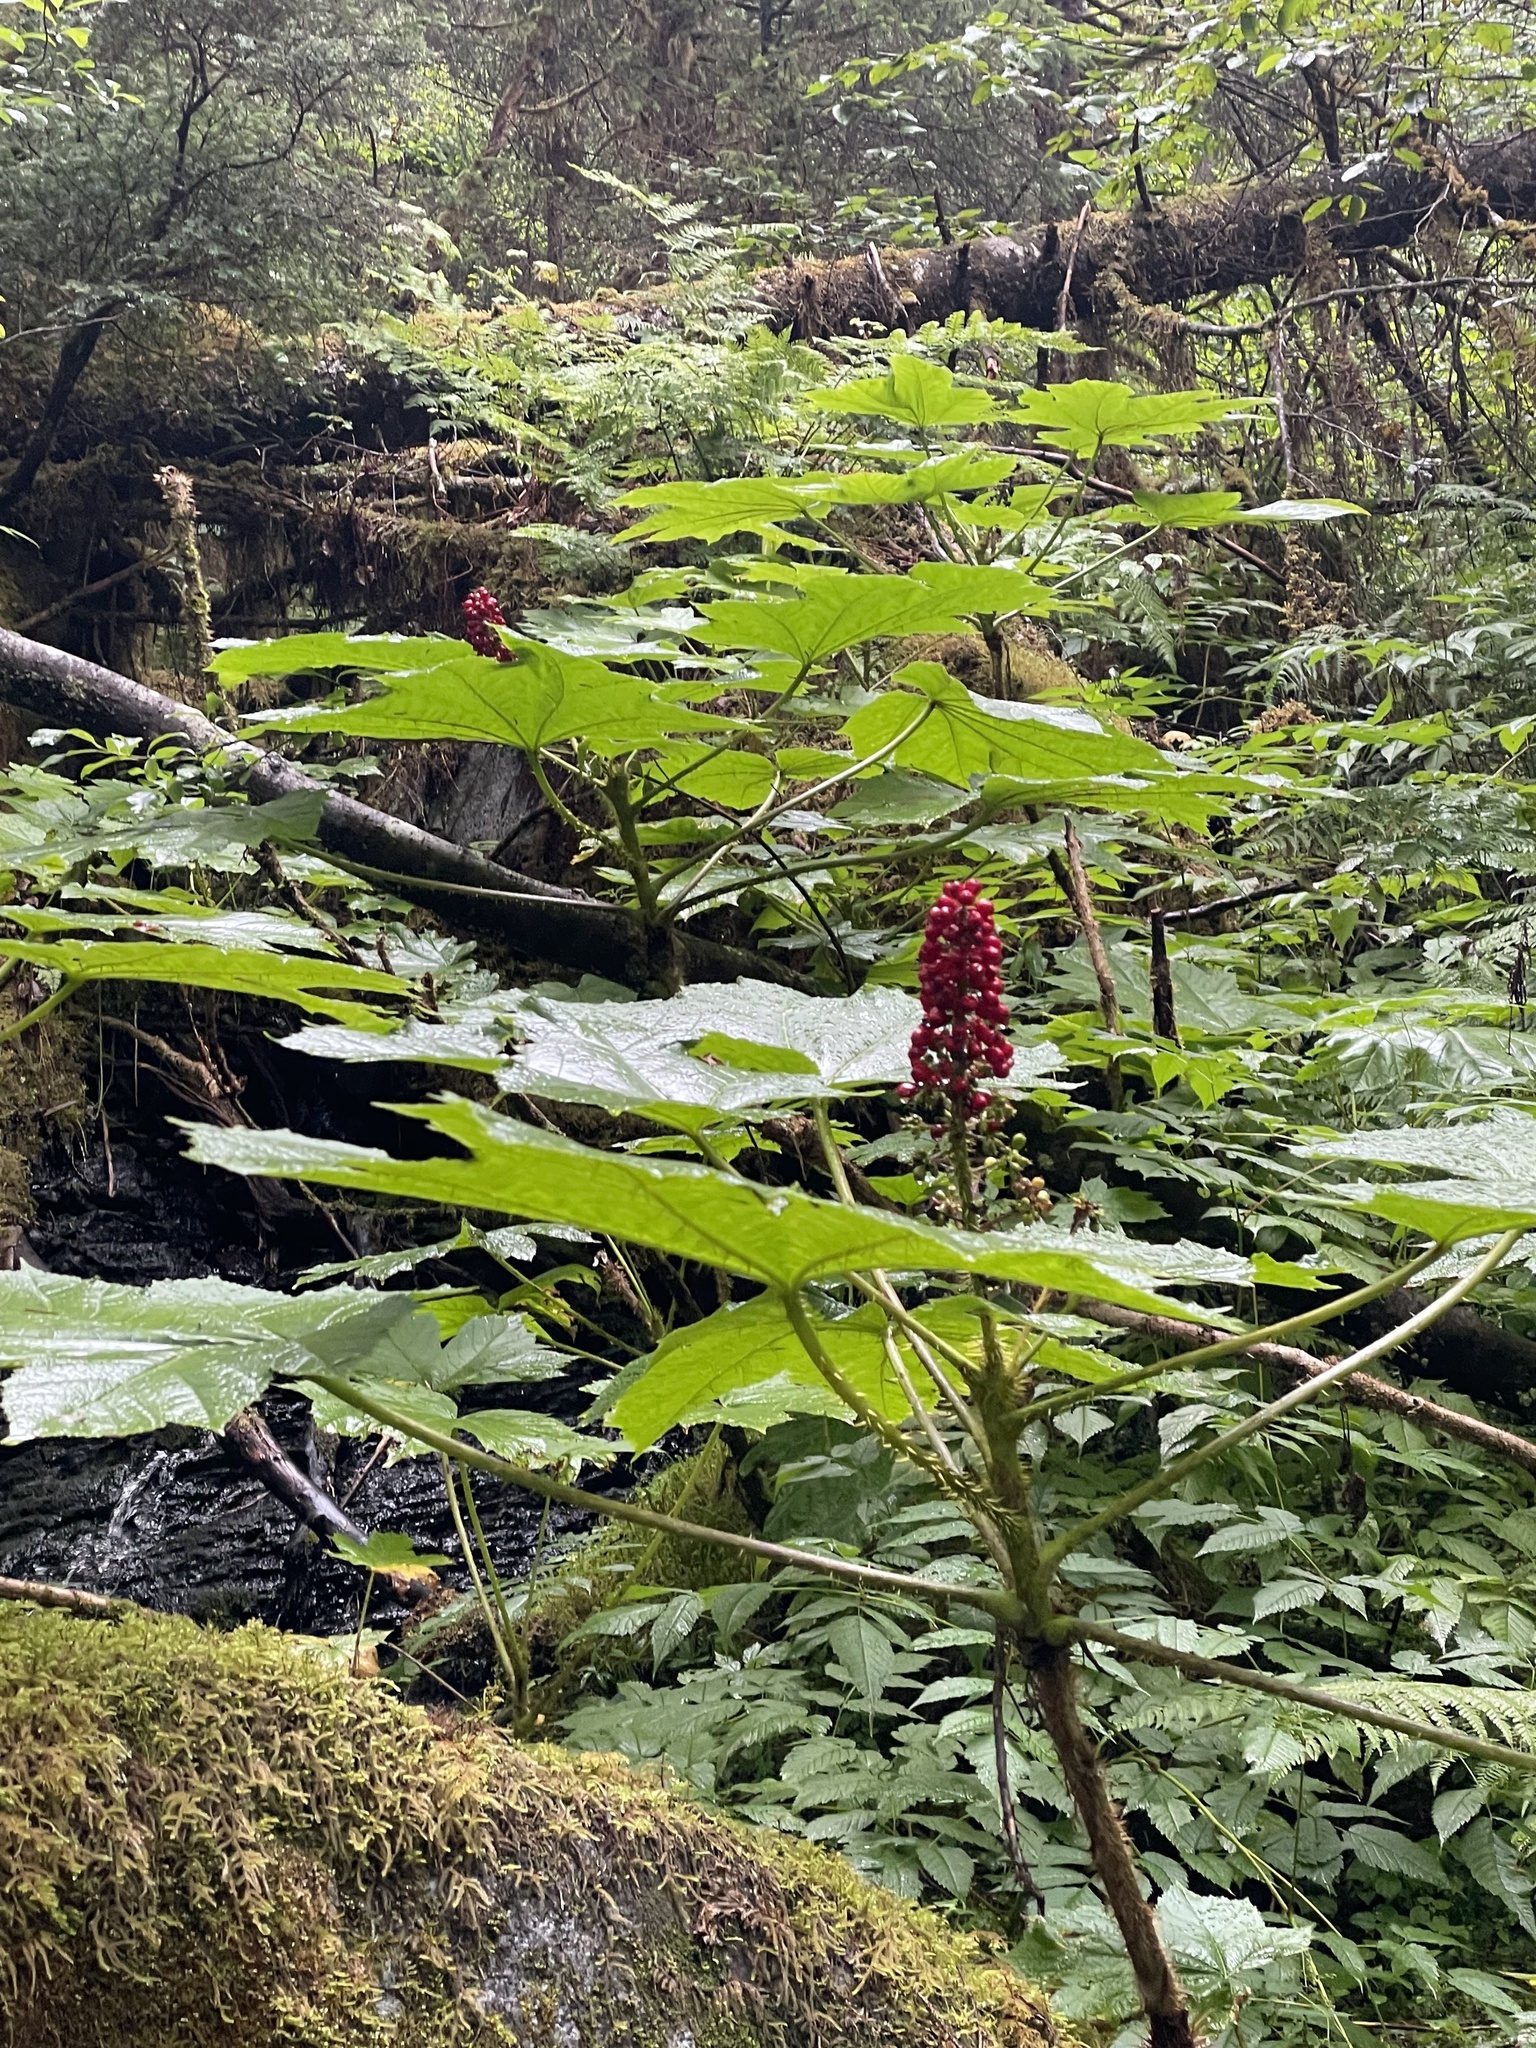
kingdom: Plantae
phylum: Tracheophyta
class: Magnoliopsida
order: Apiales
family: Araliaceae
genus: Oplopanax
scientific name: Oplopanax horridus
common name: Devil's walking-stick
